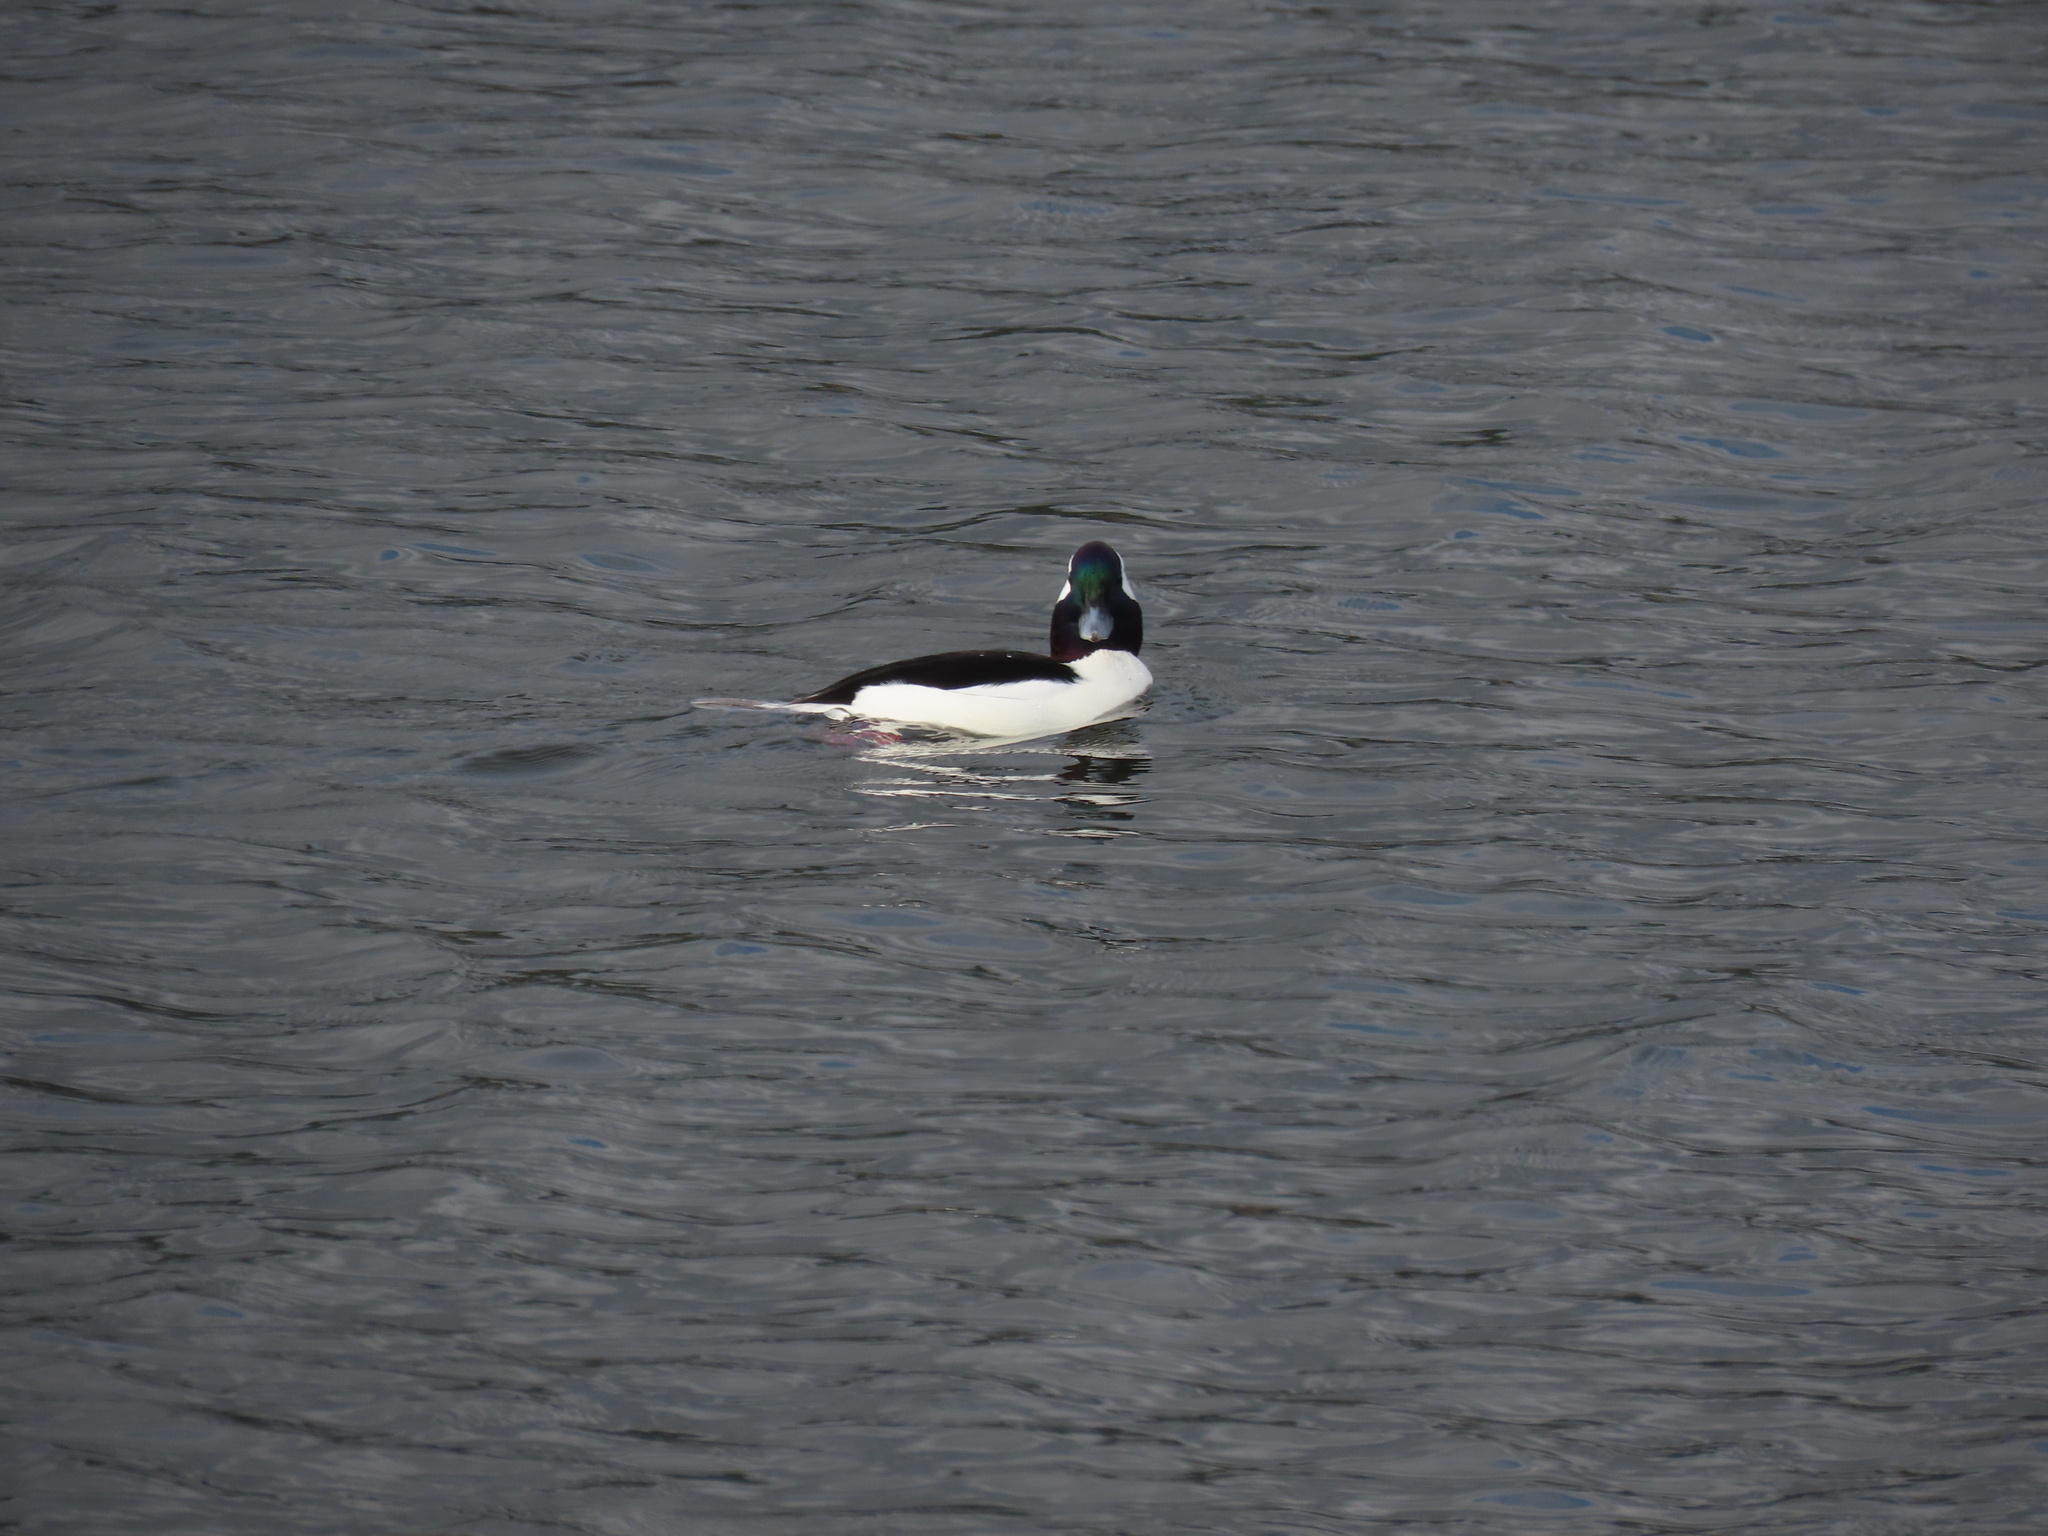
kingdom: Animalia
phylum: Chordata
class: Aves
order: Anseriformes
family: Anatidae
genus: Bucephala
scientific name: Bucephala albeola
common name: Bufflehead
